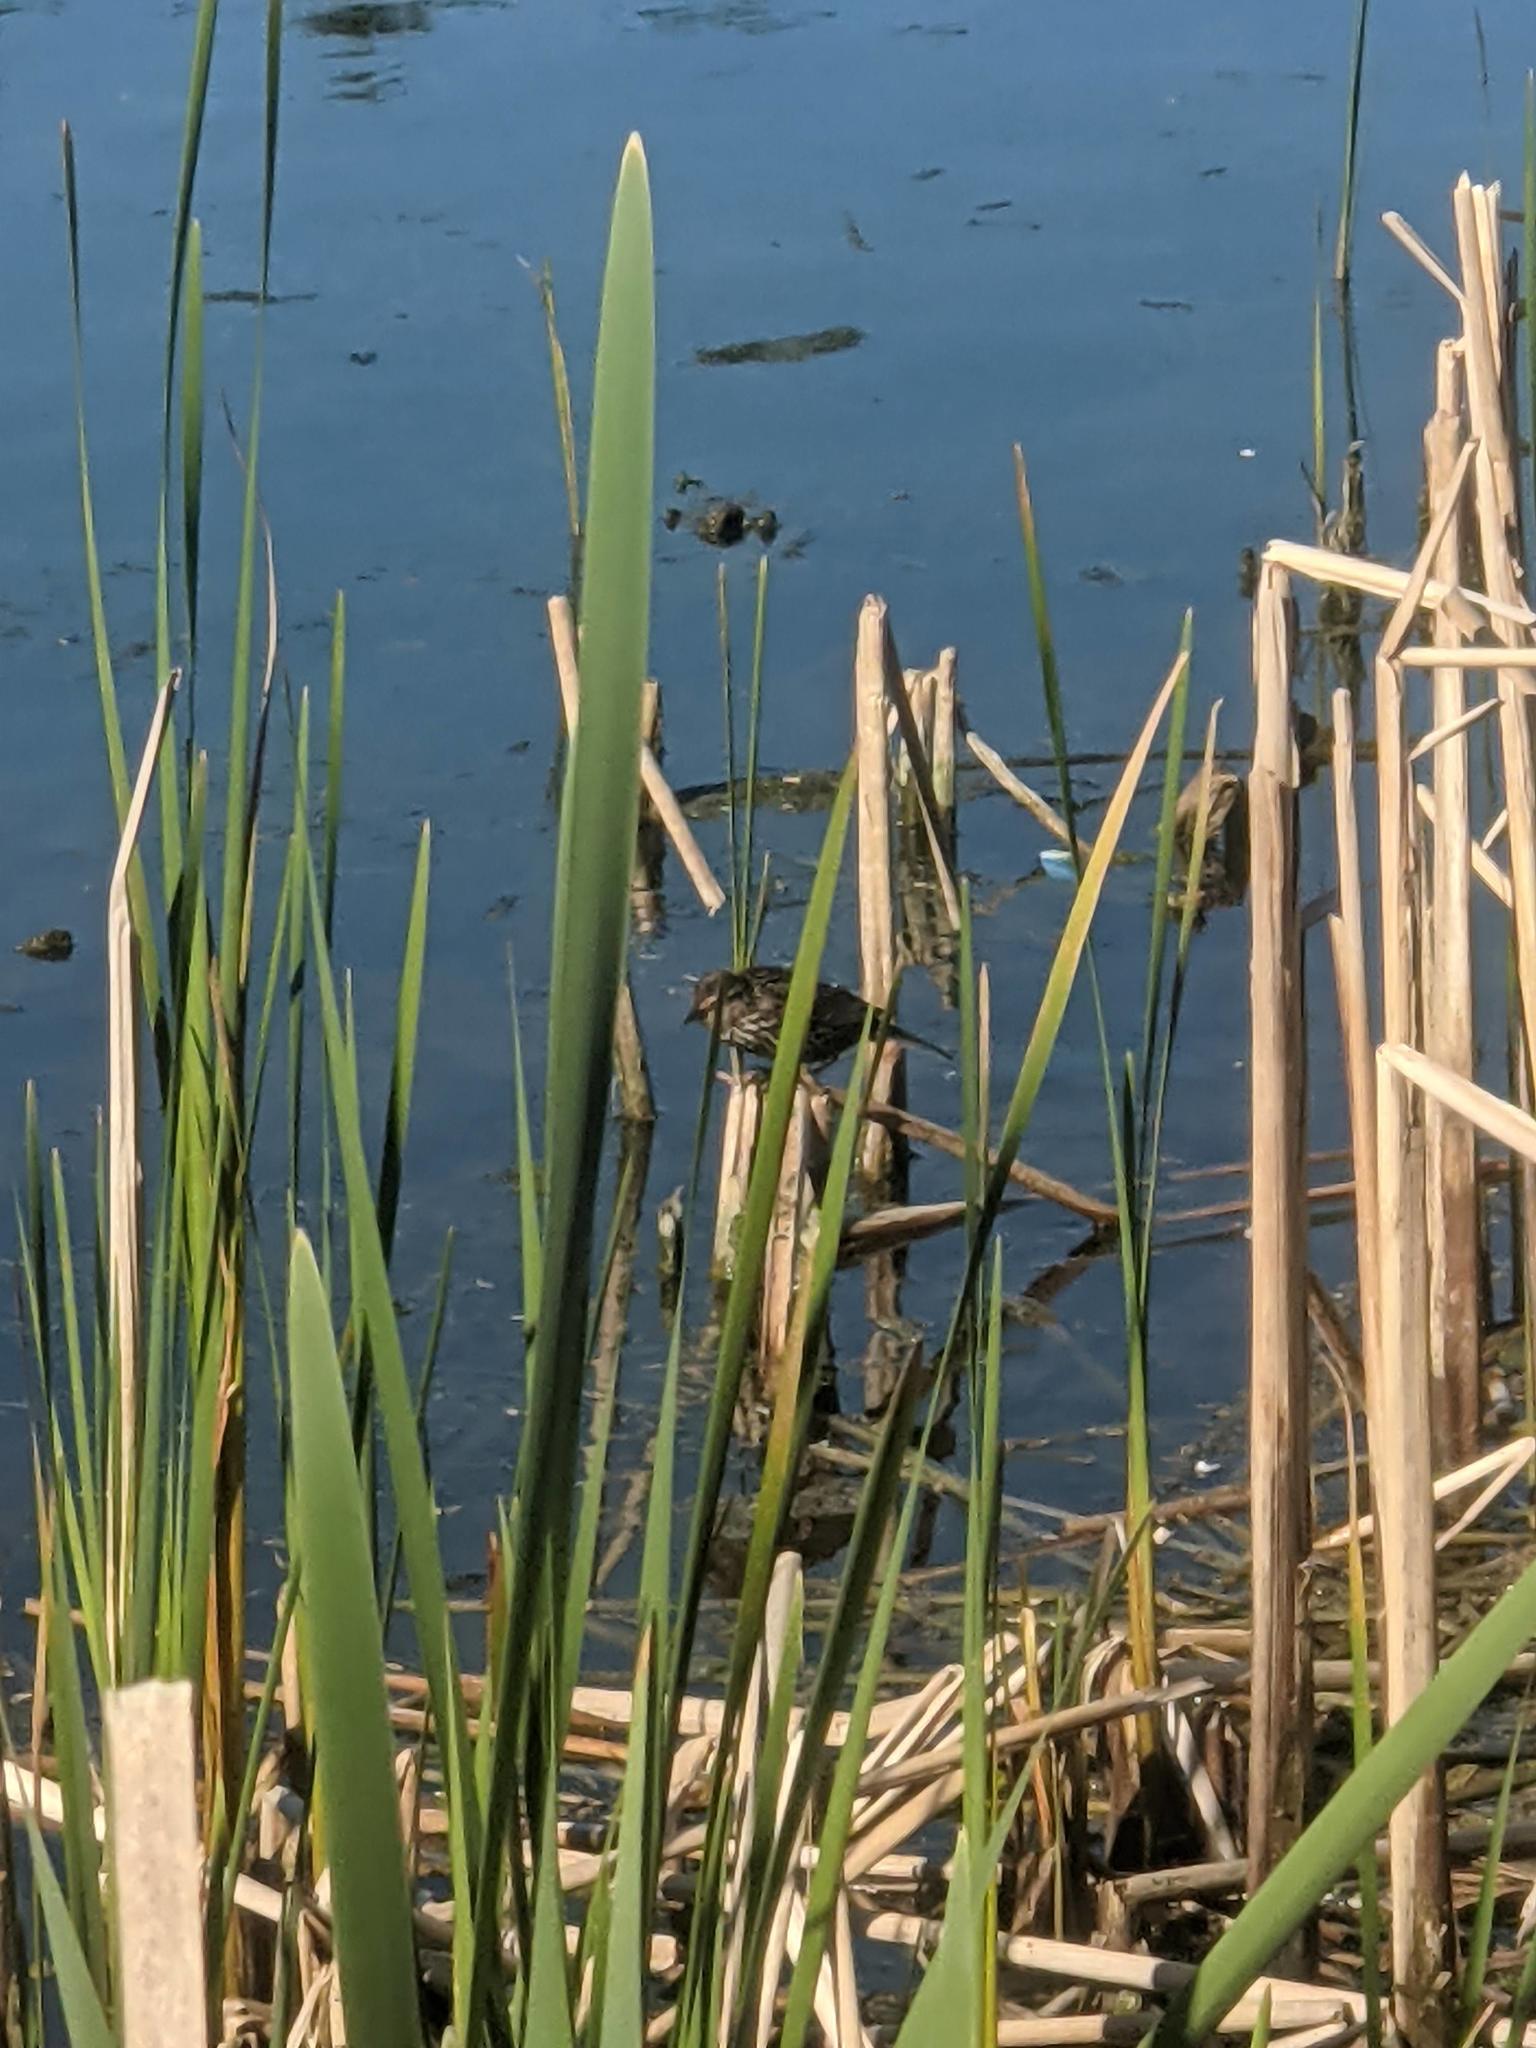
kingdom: Animalia
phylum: Chordata
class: Aves
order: Passeriformes
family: Icteridae
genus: Agelaius
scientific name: Agelaius phoeniceus
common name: Red-winged blackbird
